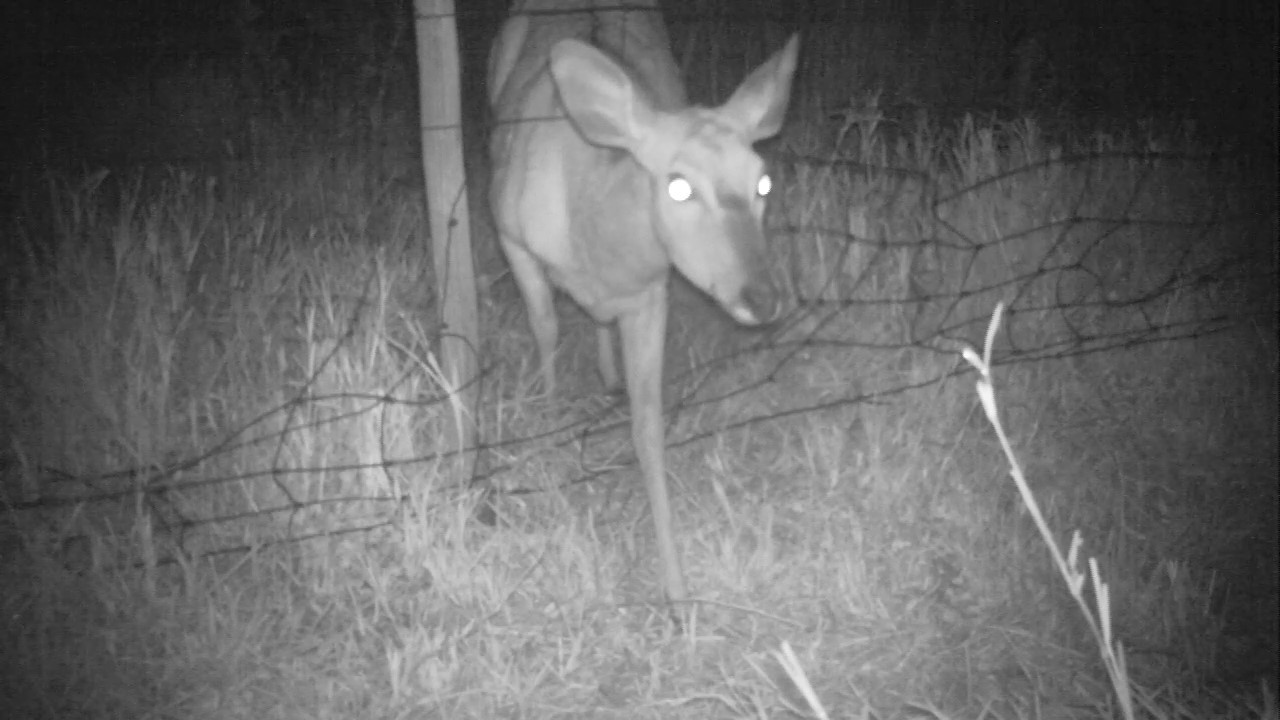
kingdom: Animalia
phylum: Chordata
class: Mammalia
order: Artiodactyla
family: Bovidae
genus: Tragelaphus
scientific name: Tragelaphus angasii
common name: Nyala
